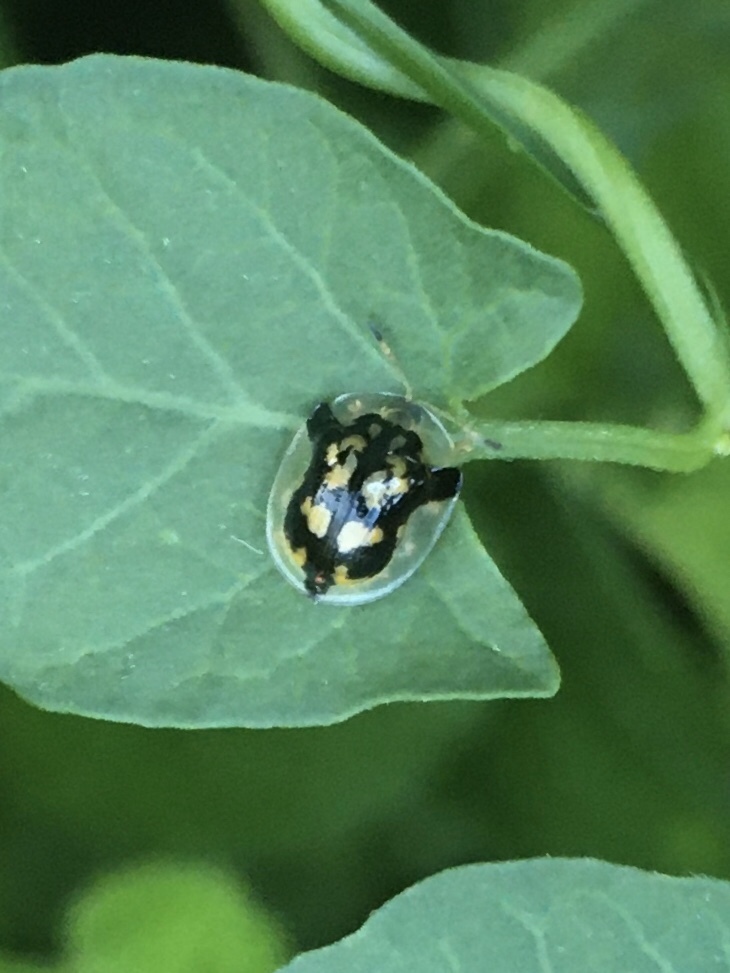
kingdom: Animalia
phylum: Arthropoda
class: Insecta
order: Coleoptera
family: Chrysomelidae
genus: Deloyala
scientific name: Deloyala guttata
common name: Mottled tortoise beetle
